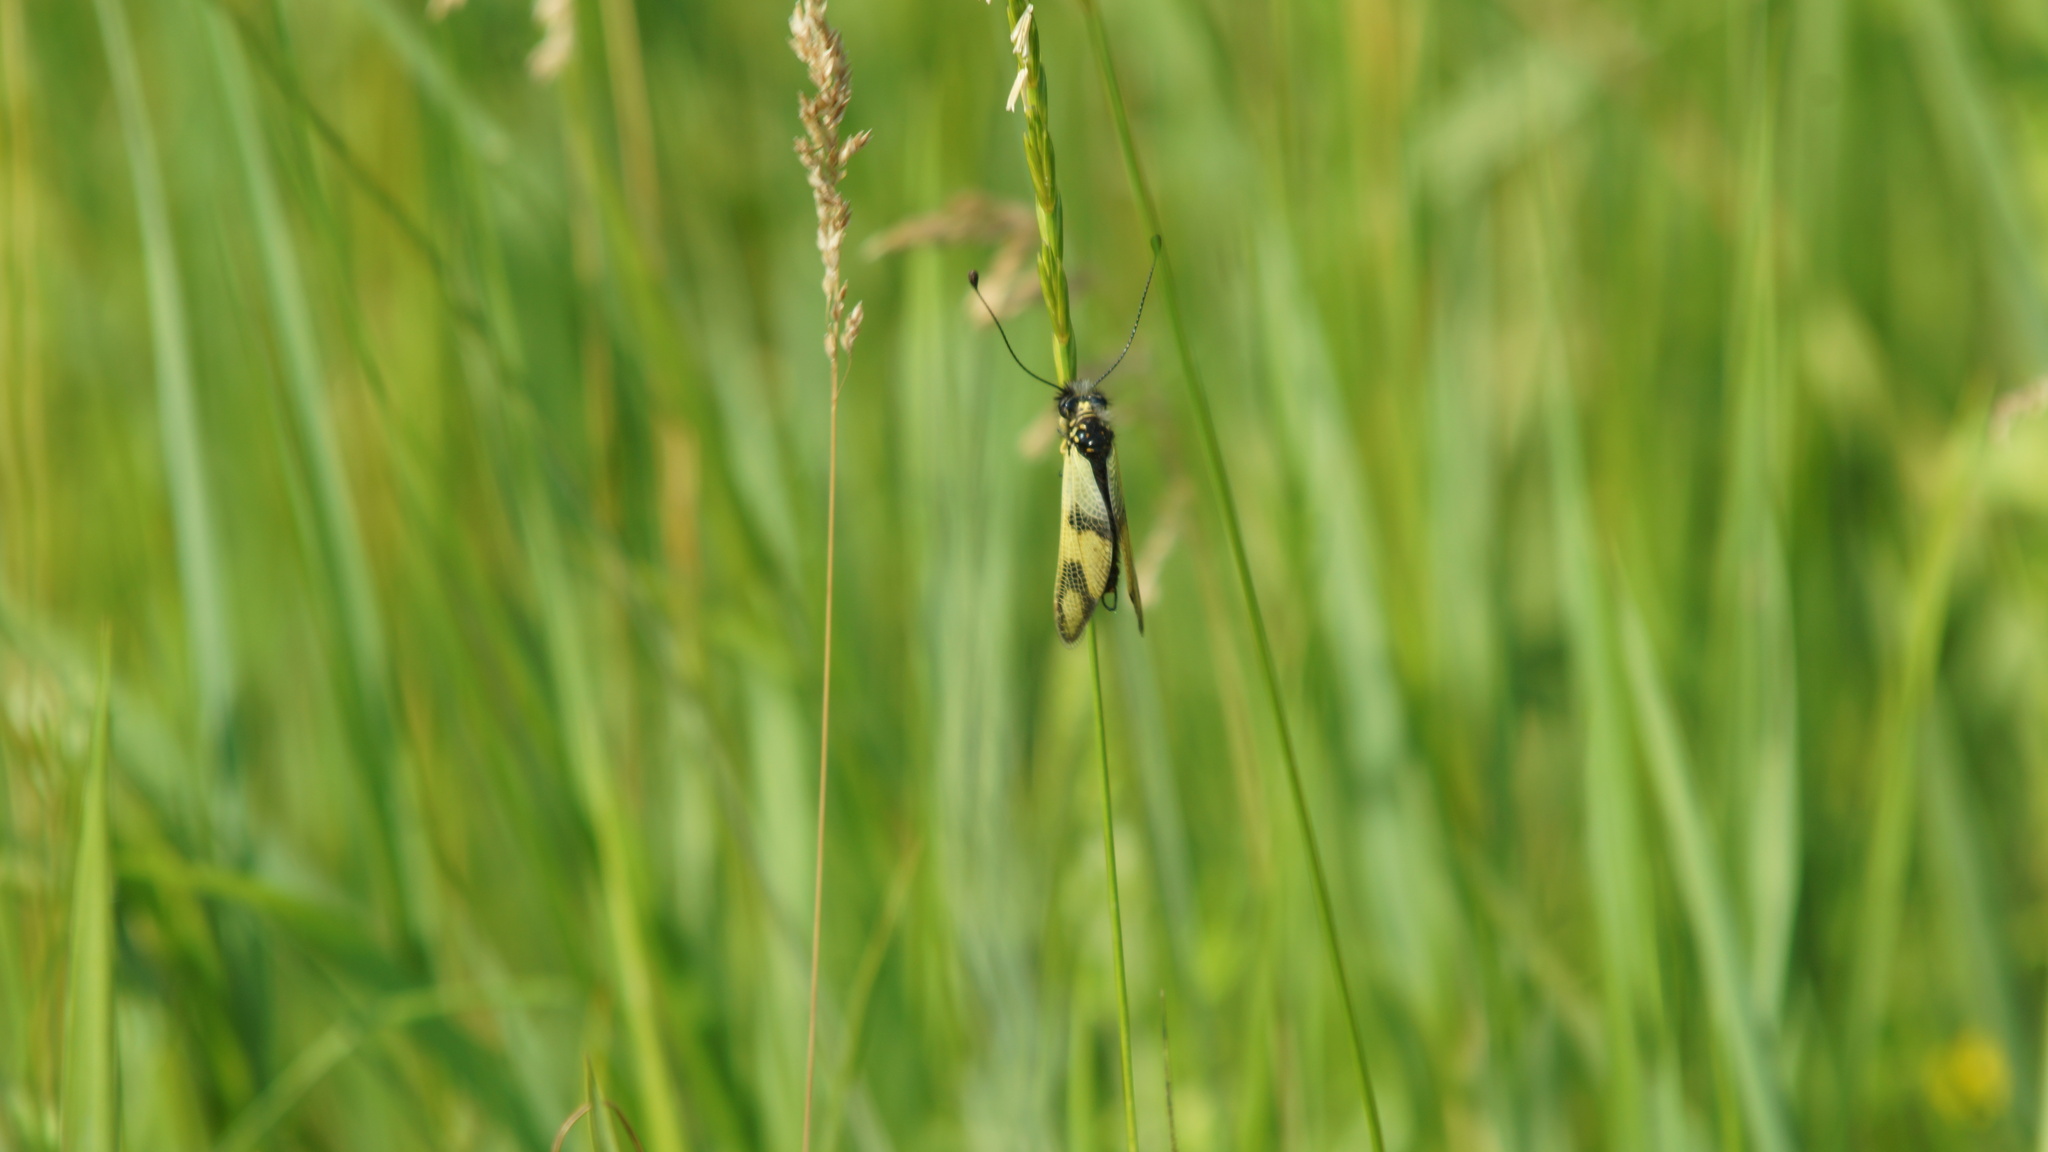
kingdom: Animalia
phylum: Arthropoda
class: Insecta
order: Neuroptera
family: Ascalaphidae
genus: Libelloides
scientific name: Libelloides macaronius
